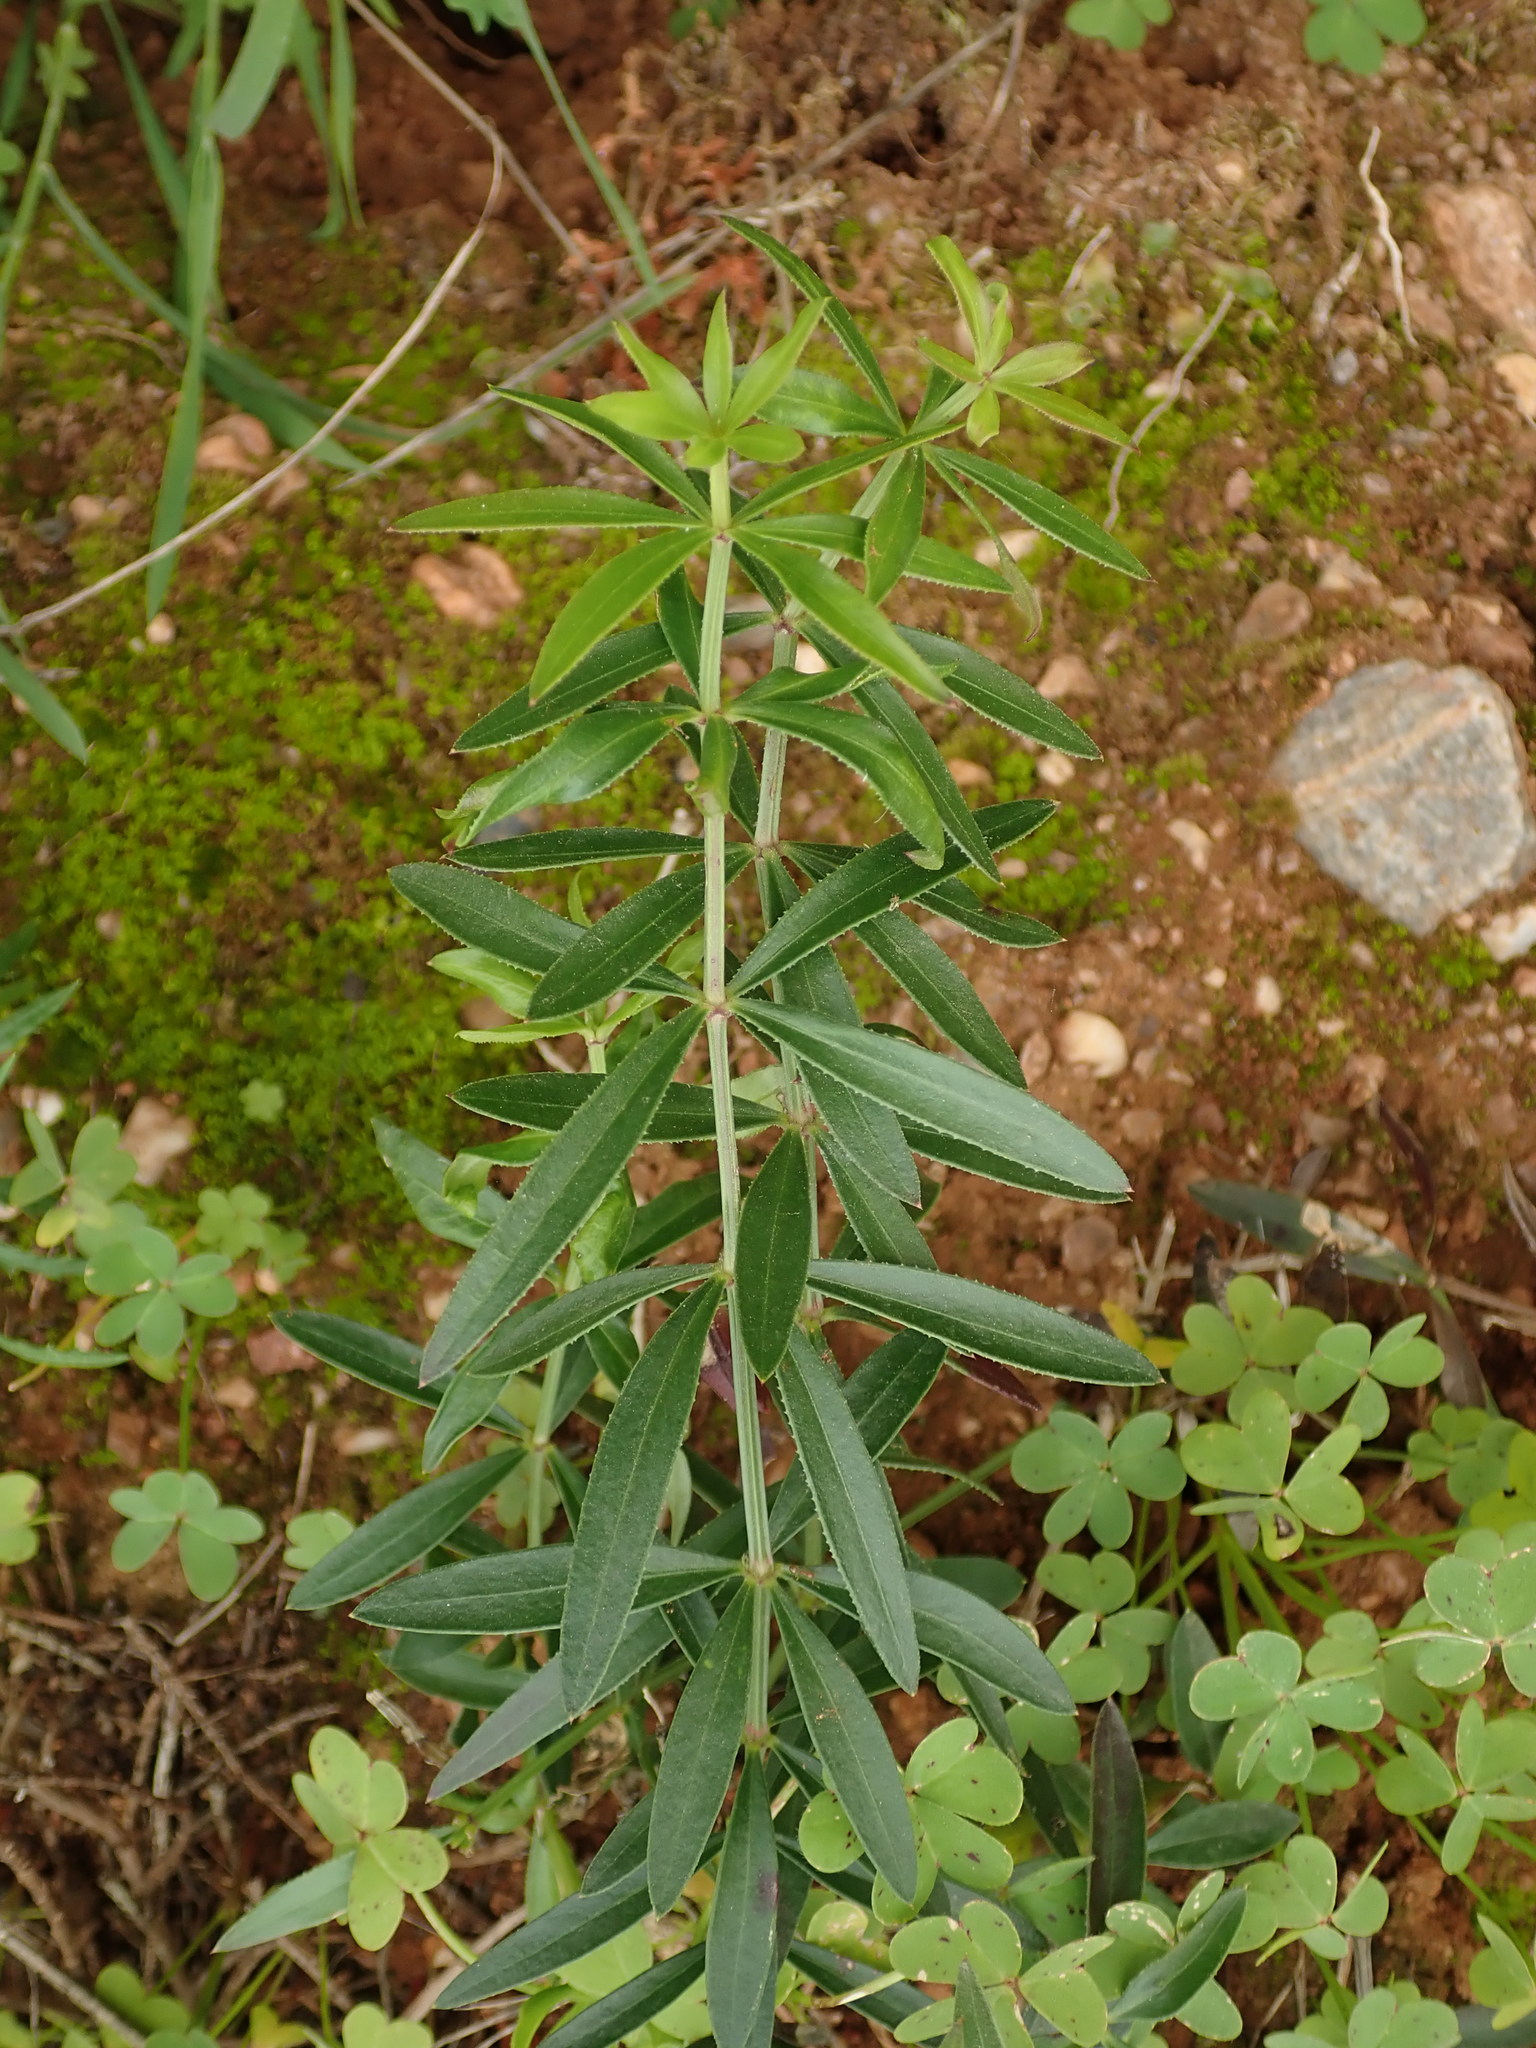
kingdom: Plantae
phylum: Tracheophyta
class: Magnoliopsida
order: Gentianales
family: Rubiaceae
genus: Rubia
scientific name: Rubia peregrina
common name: Wild madder
